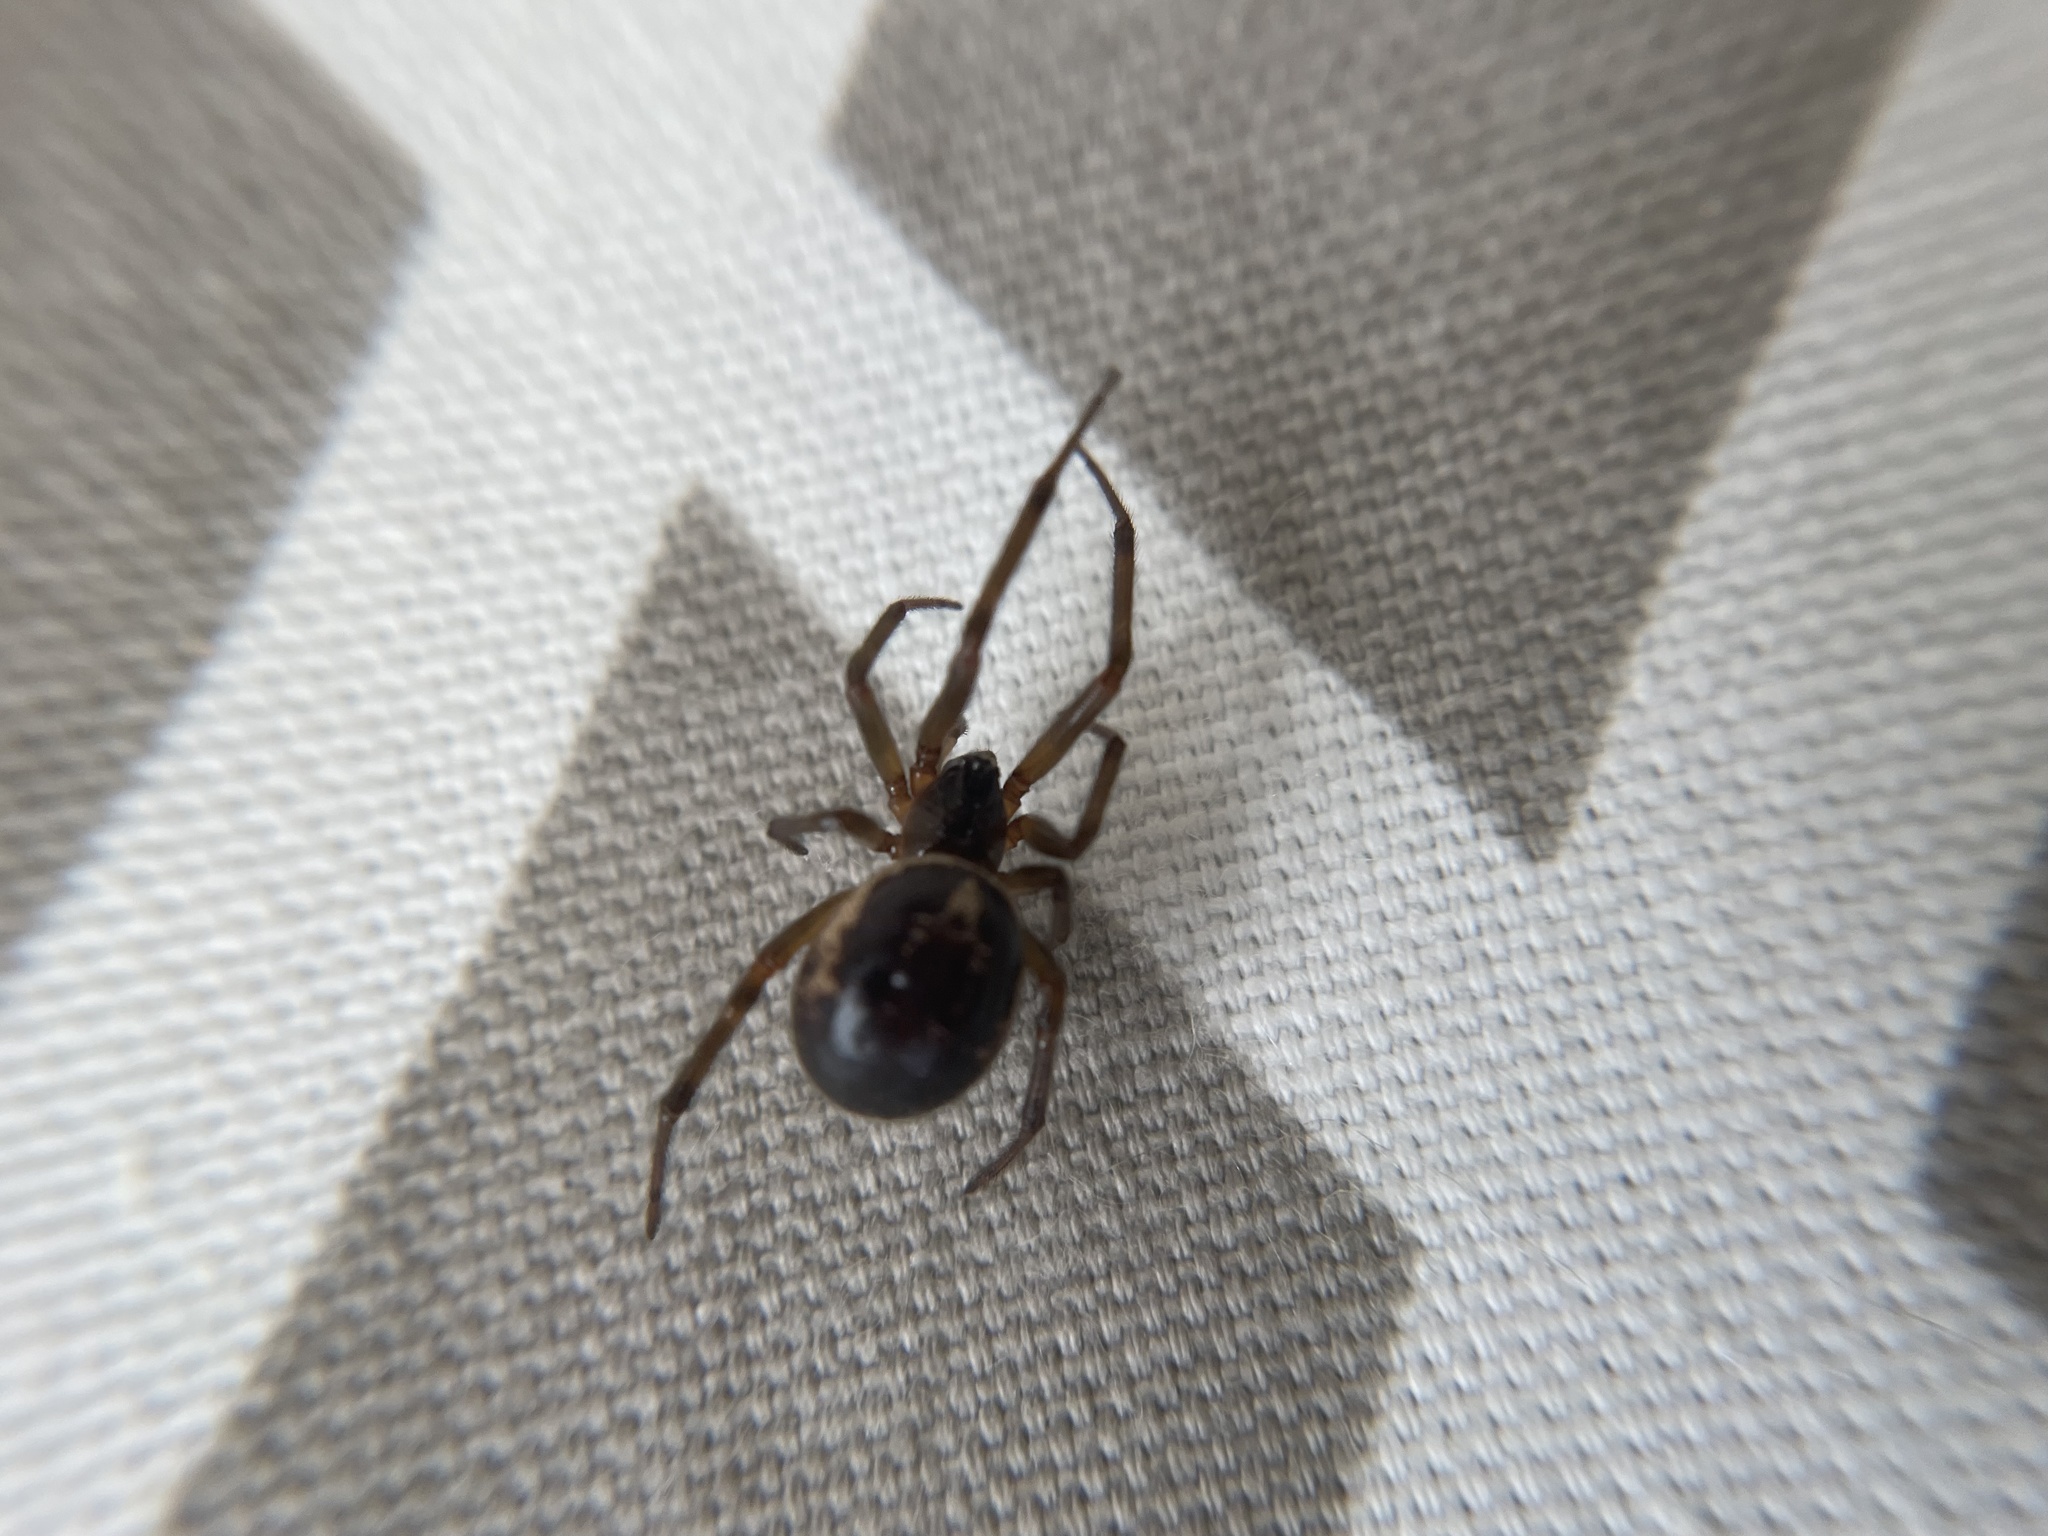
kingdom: Animalia
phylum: Arthropoda
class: Arachnida
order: Araneae
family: Theridiidae
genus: Steatoda
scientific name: Steatoda nobilis
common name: Cobweb weaver
